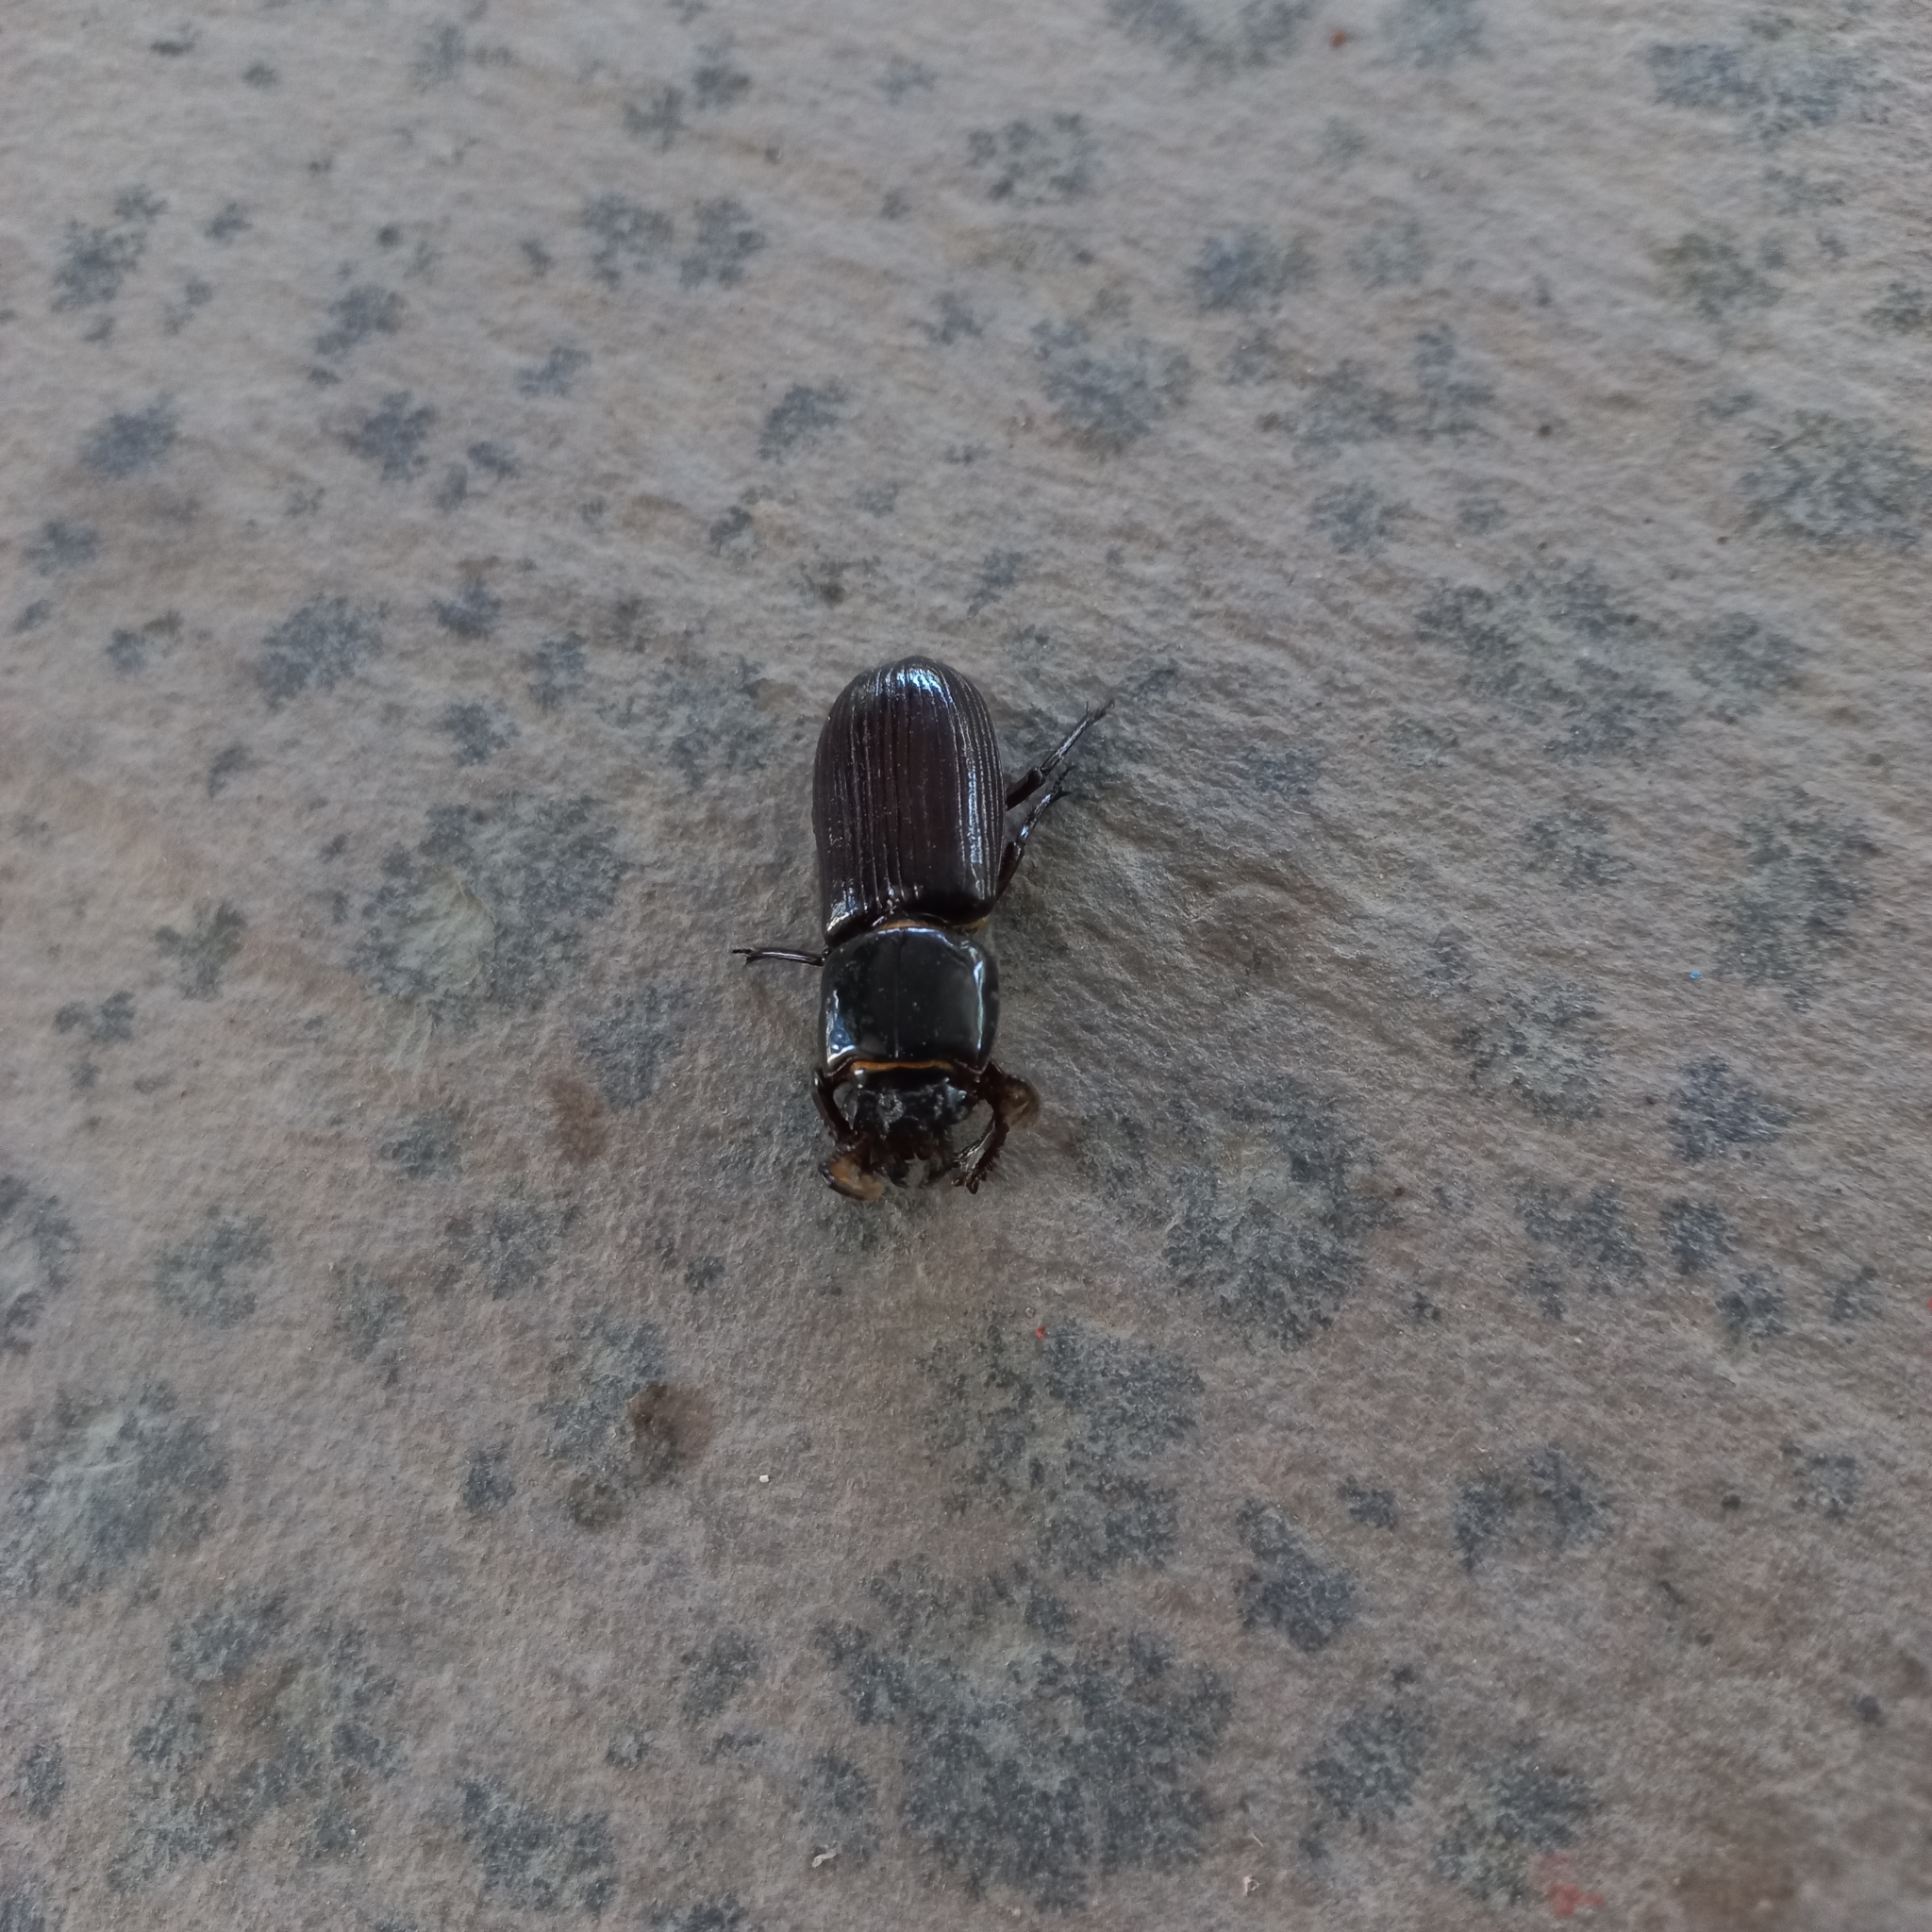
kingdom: Animalia
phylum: Arthropoda
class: Insecta
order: Coleoptera
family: Passalidae
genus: Ptichopus
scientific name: Ptichopus angulatus
